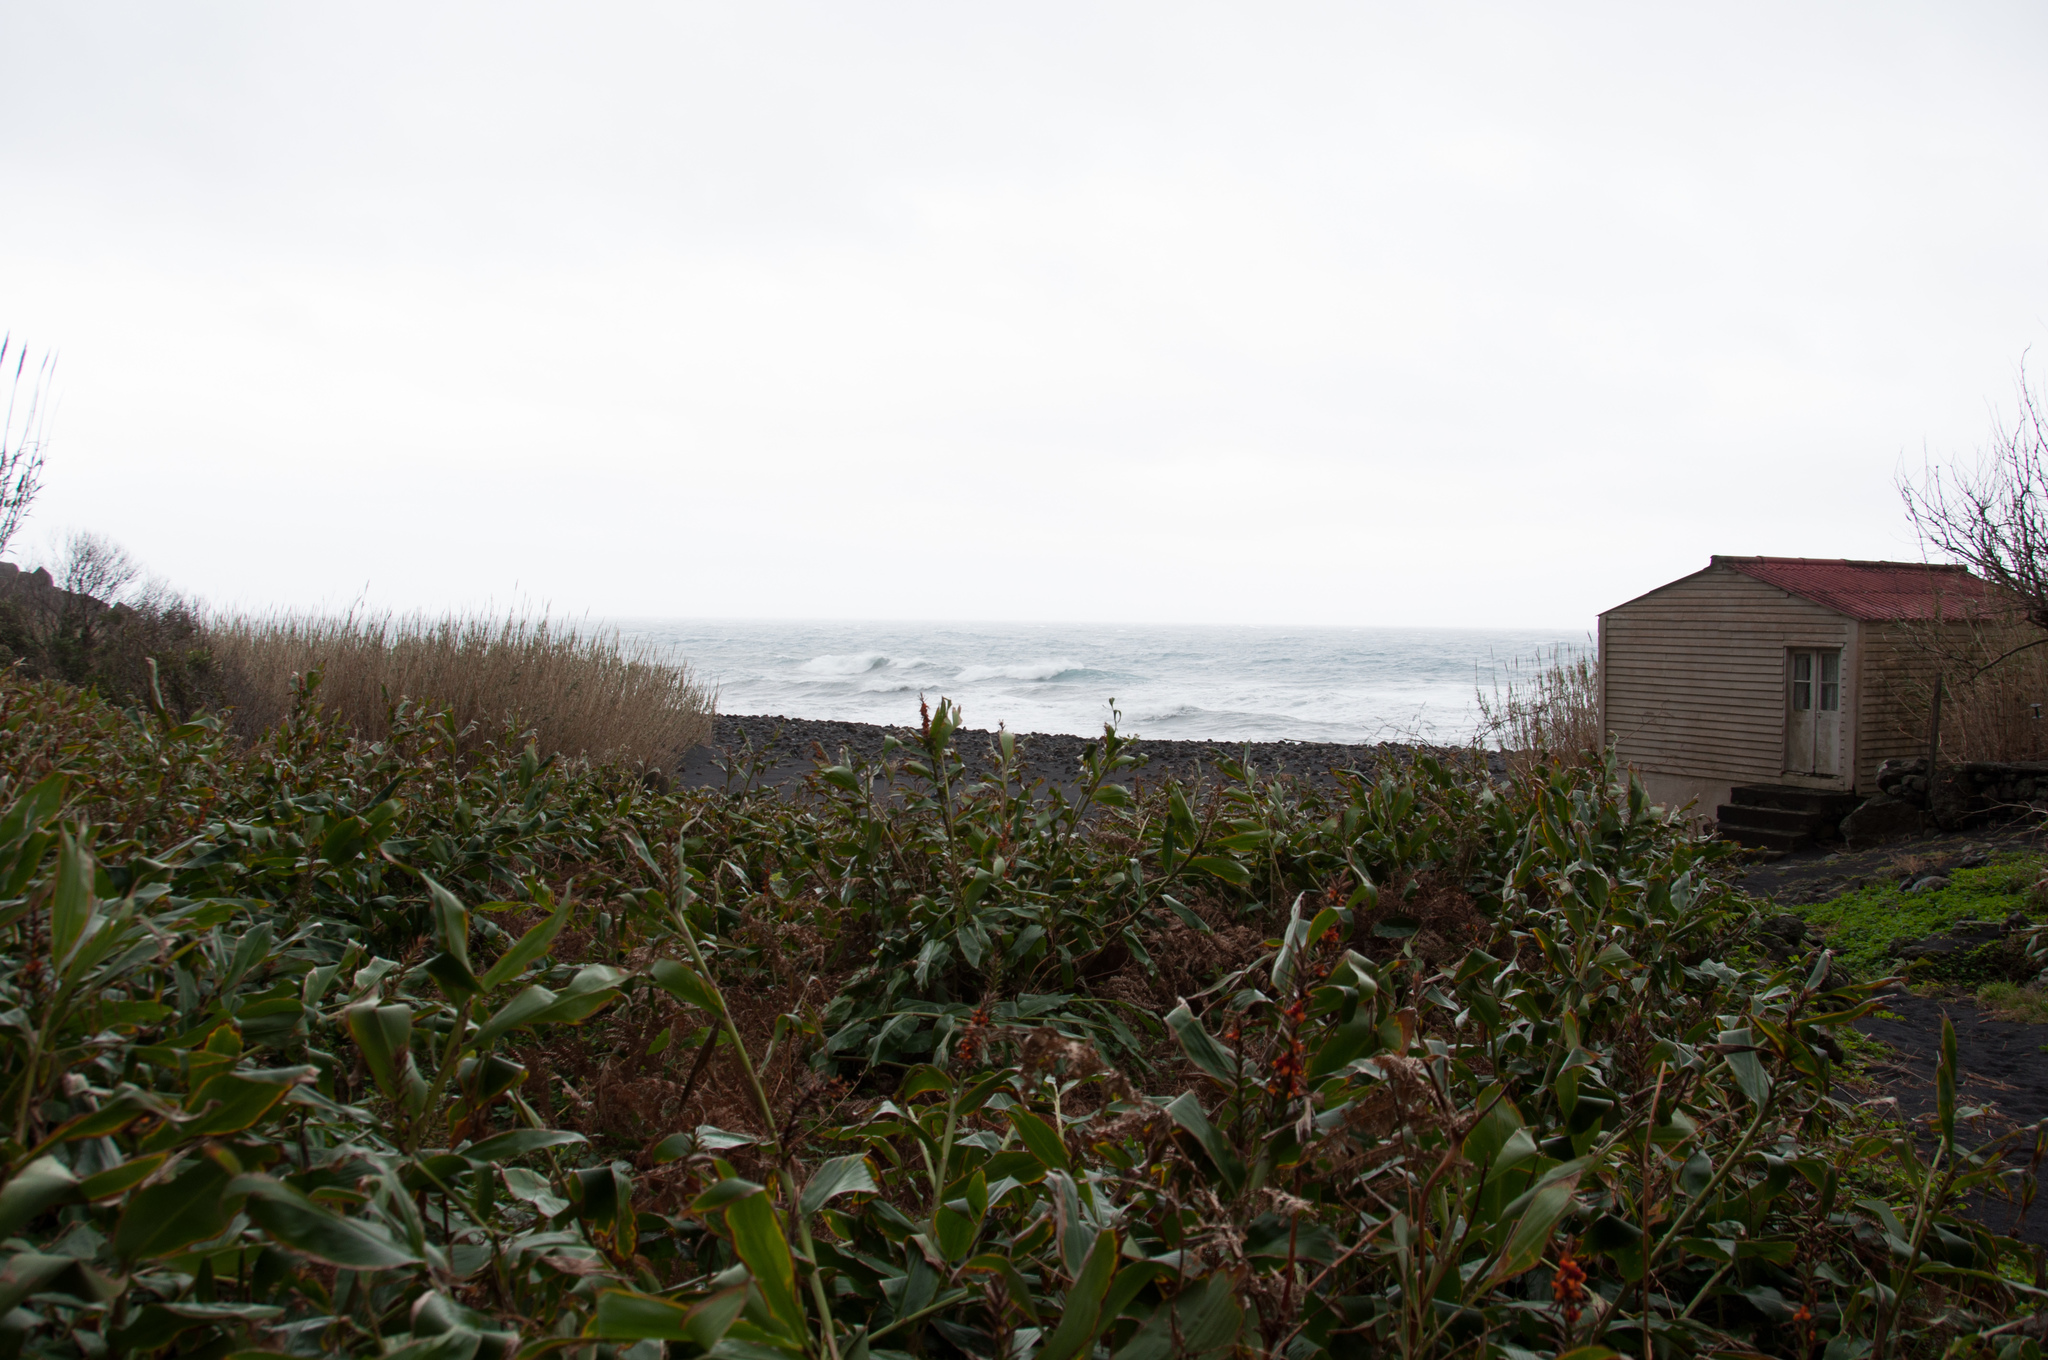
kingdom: Plantae
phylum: Tracheophyta
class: Liliopsida
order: Zingiberales
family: Zingiberaceae
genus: Hedychium
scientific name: Hedychium gardnerianum
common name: Himalayan ginger
